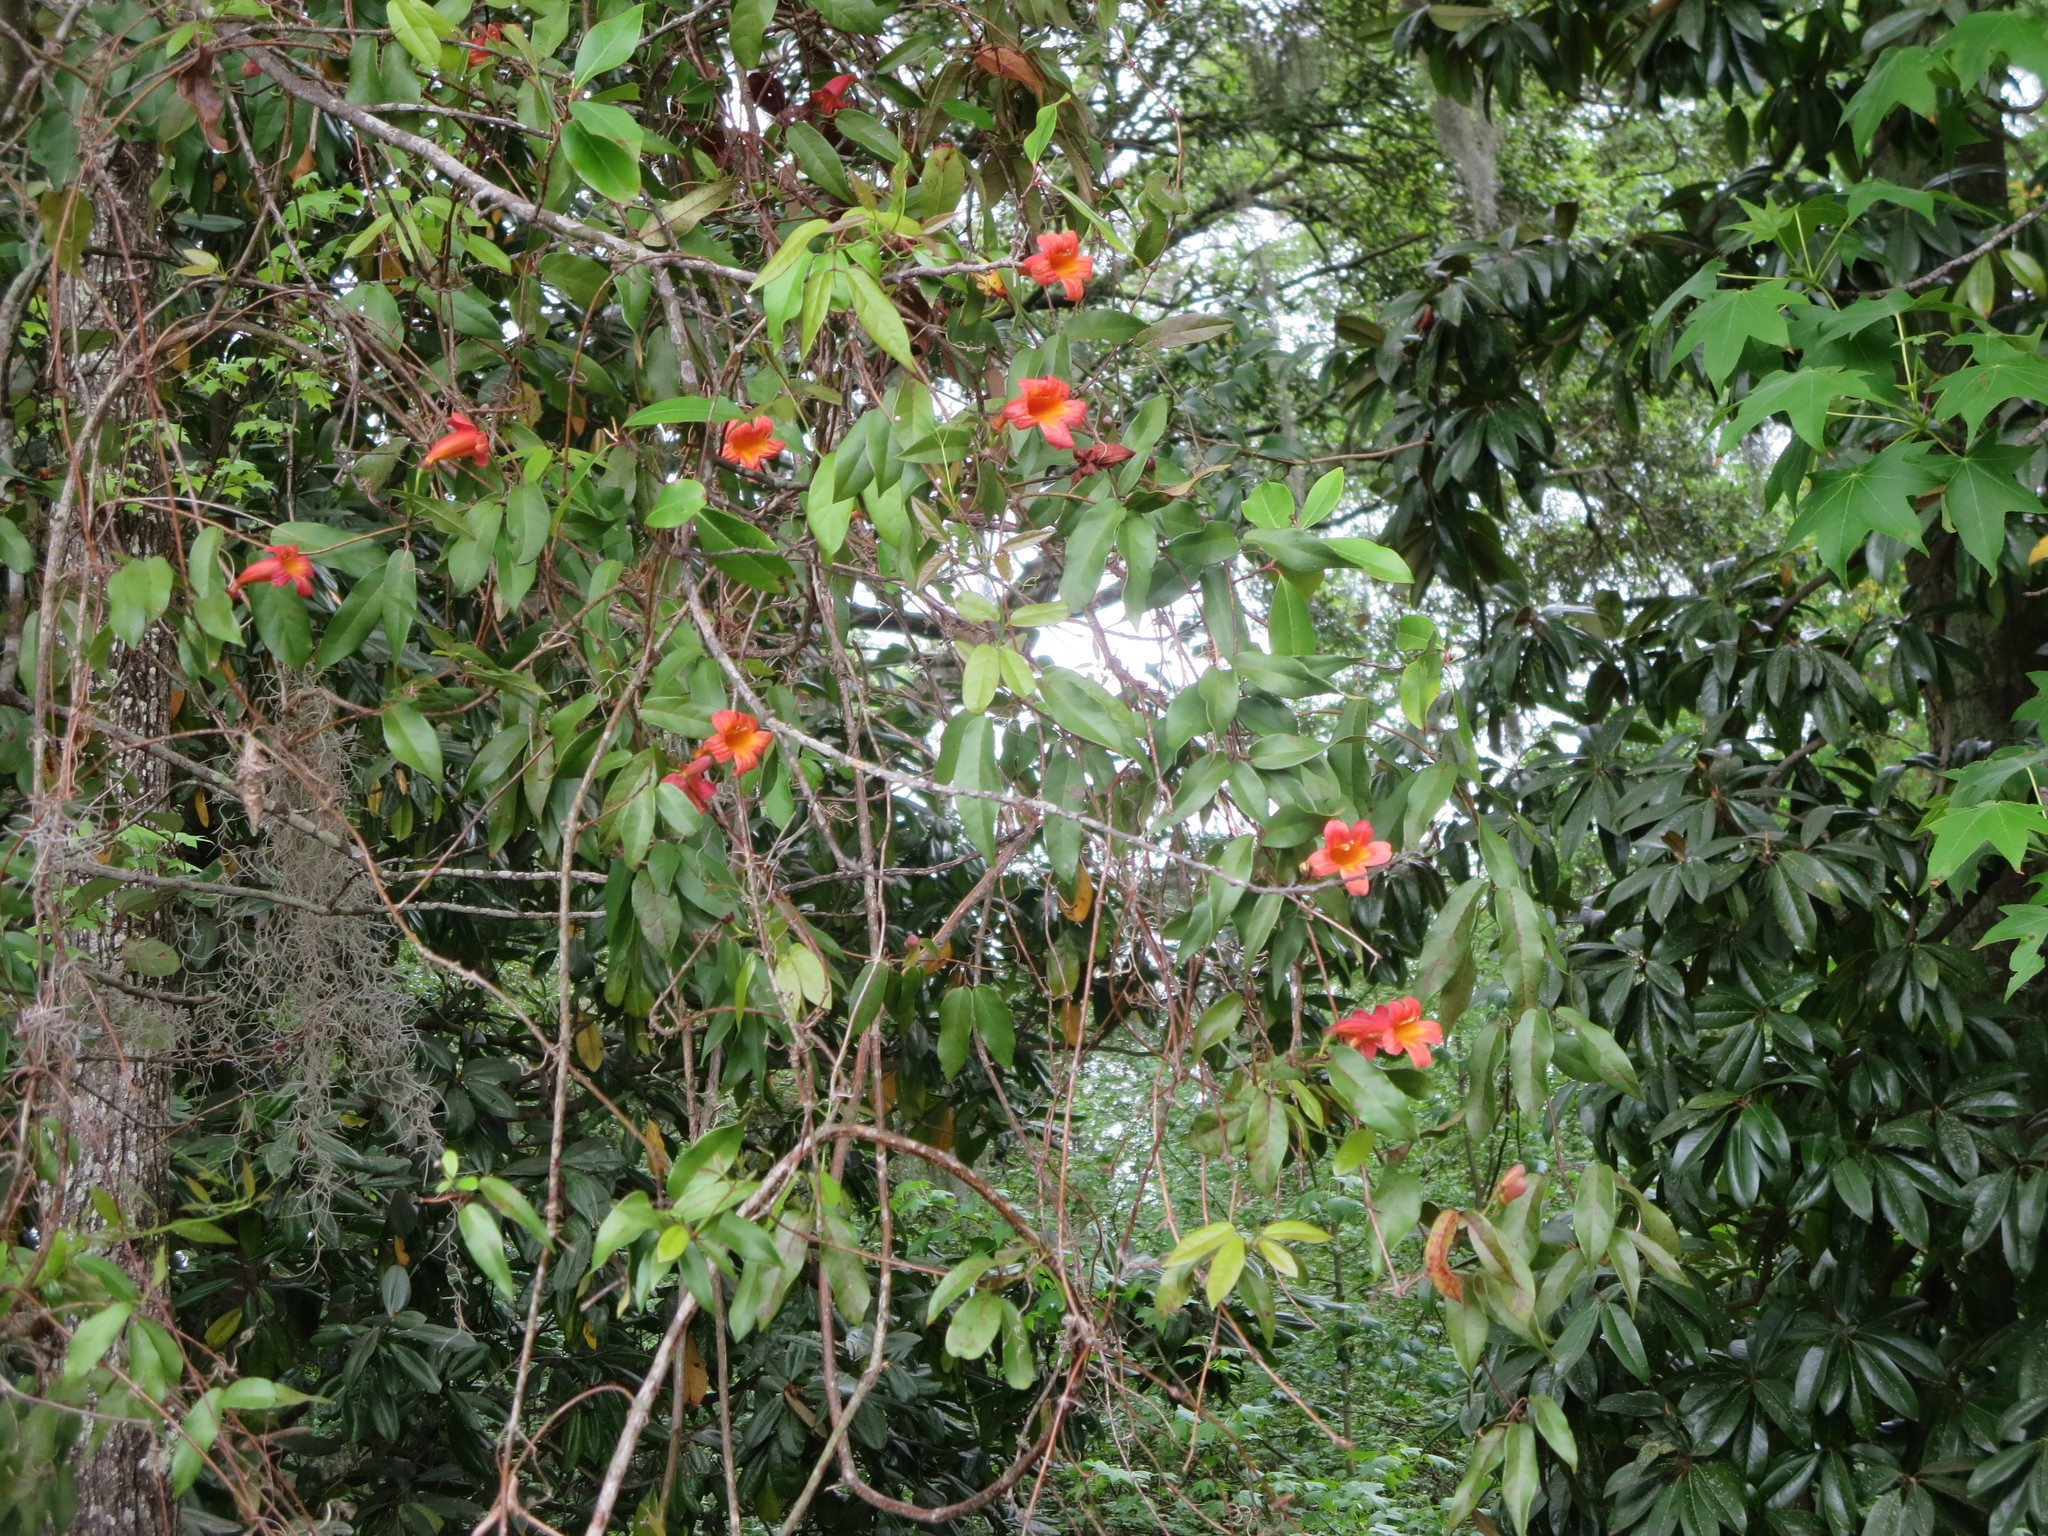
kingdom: Plantae
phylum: Tracheophyta
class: Magnoliopsida
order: Lamiales
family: Bignoniaceae
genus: Bignonia
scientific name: Bignonia capreolata
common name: Crossvine
